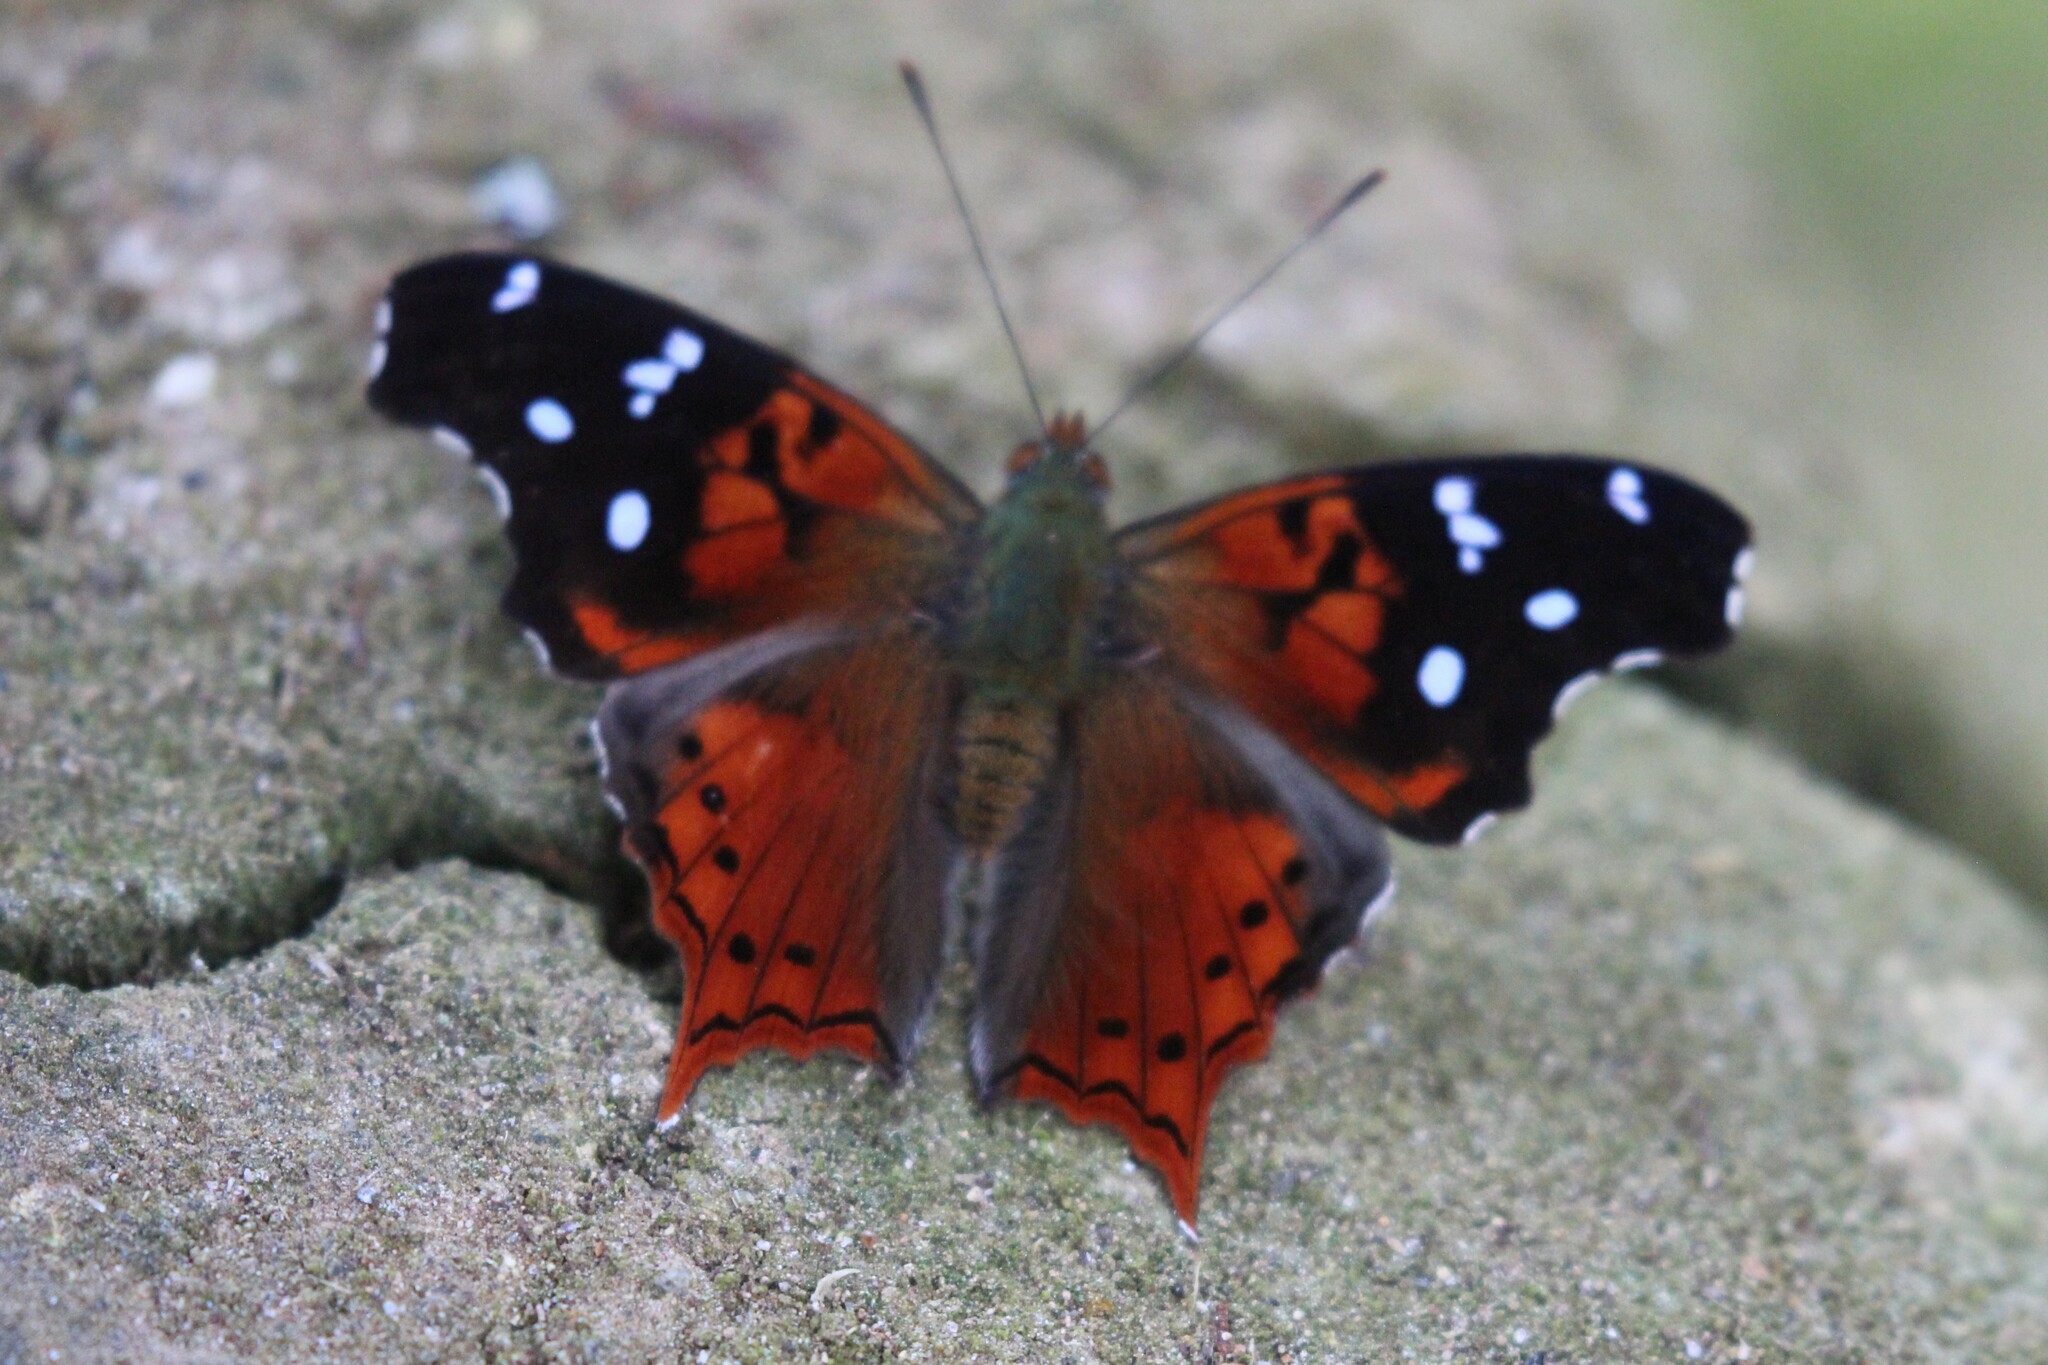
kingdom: Animalia
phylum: Arthropoda
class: Insecta
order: Lepidoptera
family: Nymphalidae
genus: Hypanartia
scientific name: Hypanartia kefersteini
